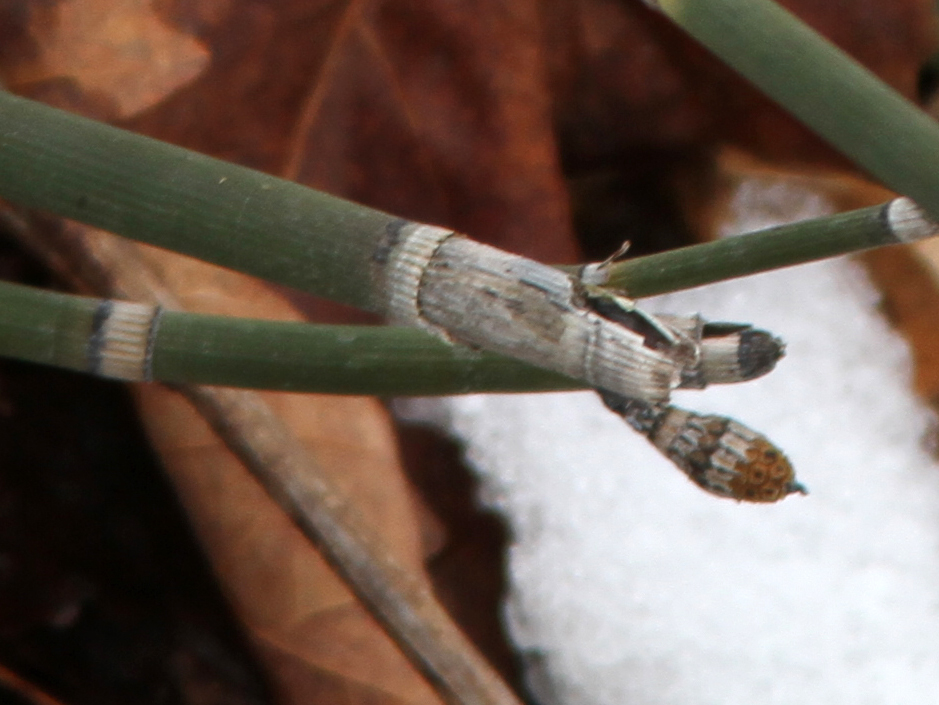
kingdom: Plantae
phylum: Tracheophyta
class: Polypodiopsida
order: Equisetales
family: Equisetaceae
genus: Equisetum
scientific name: Equisetum praealtum
